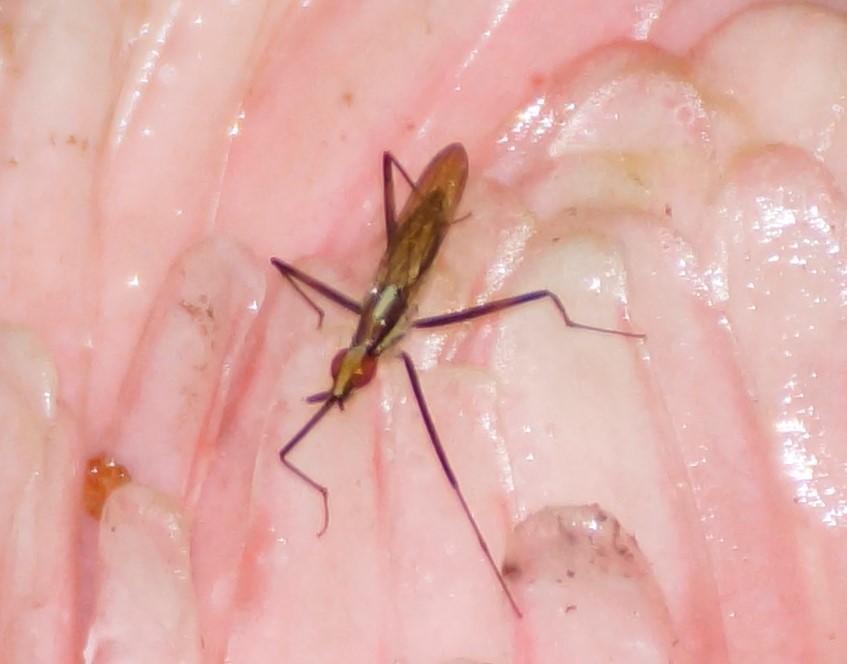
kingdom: Animalia
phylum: Arthropoda
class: Insecta
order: Diptera
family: Neriidae
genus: Telostylinus
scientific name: Telostylinus lineolatus
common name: Banana stalk fly
